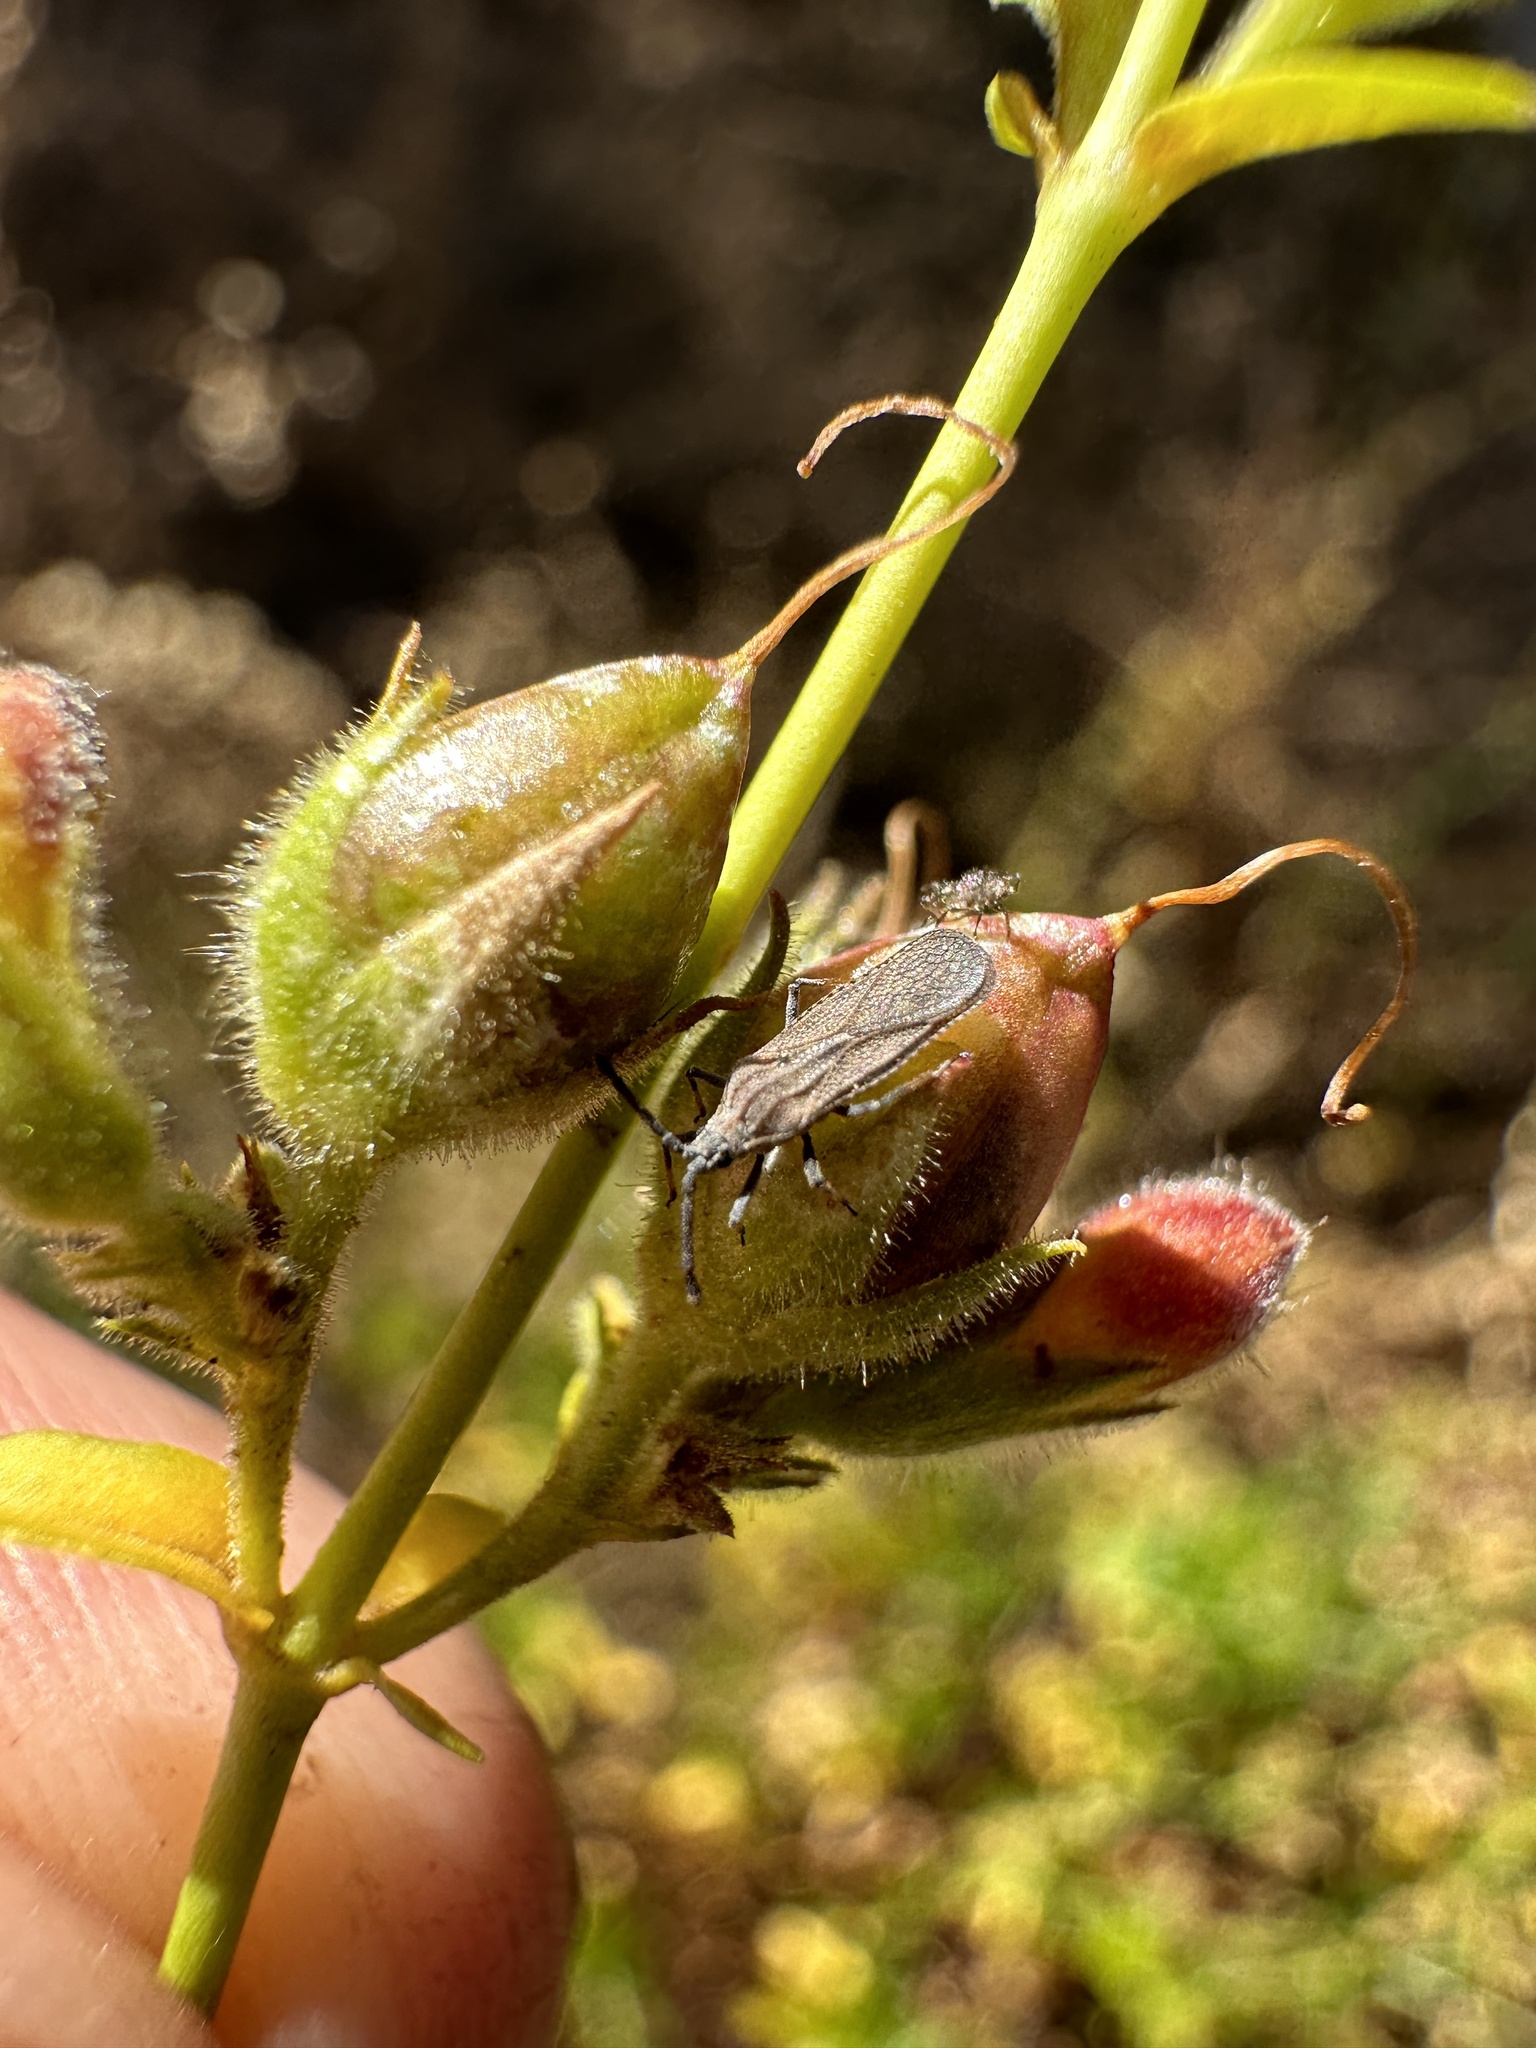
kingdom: Plantae
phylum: Tracheophyta
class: Magnoliopsida
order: Lamiales
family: Plantaginaceae
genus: Keckiella
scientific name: Keckiella lemmonii
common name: Lemmon's keckiella
